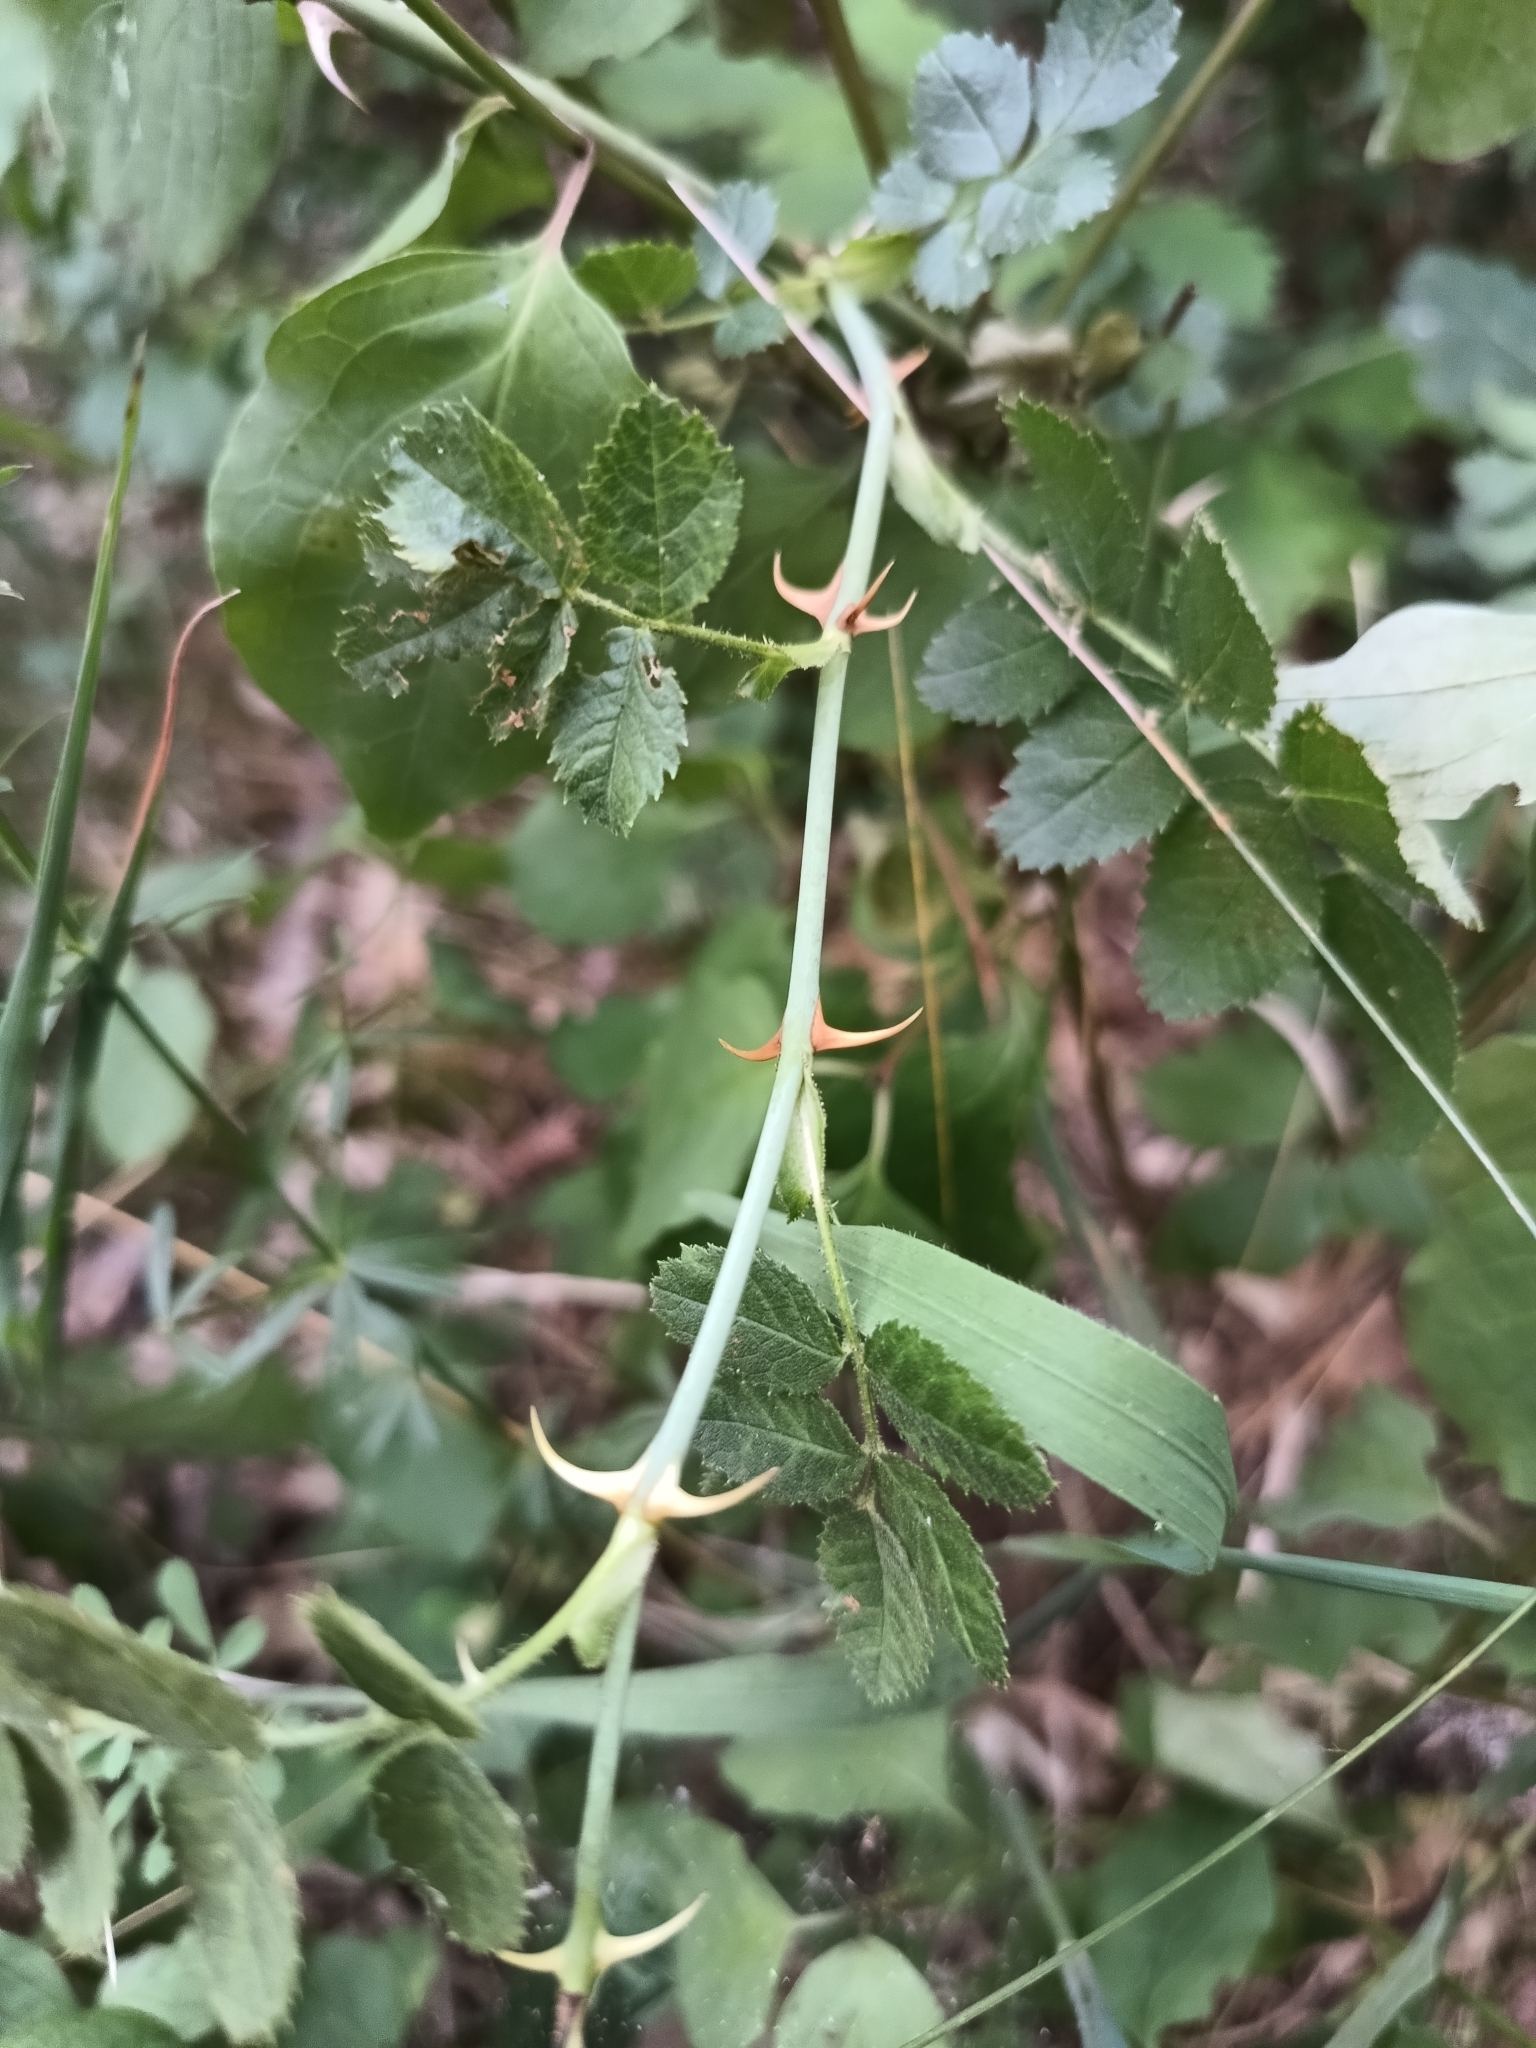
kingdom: Plantae
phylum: Tracheophyta
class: Magnoliopsida
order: Rosales
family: Rosaceae
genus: Rosa
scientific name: Rosa rubiginosa
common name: Sweet-briar
